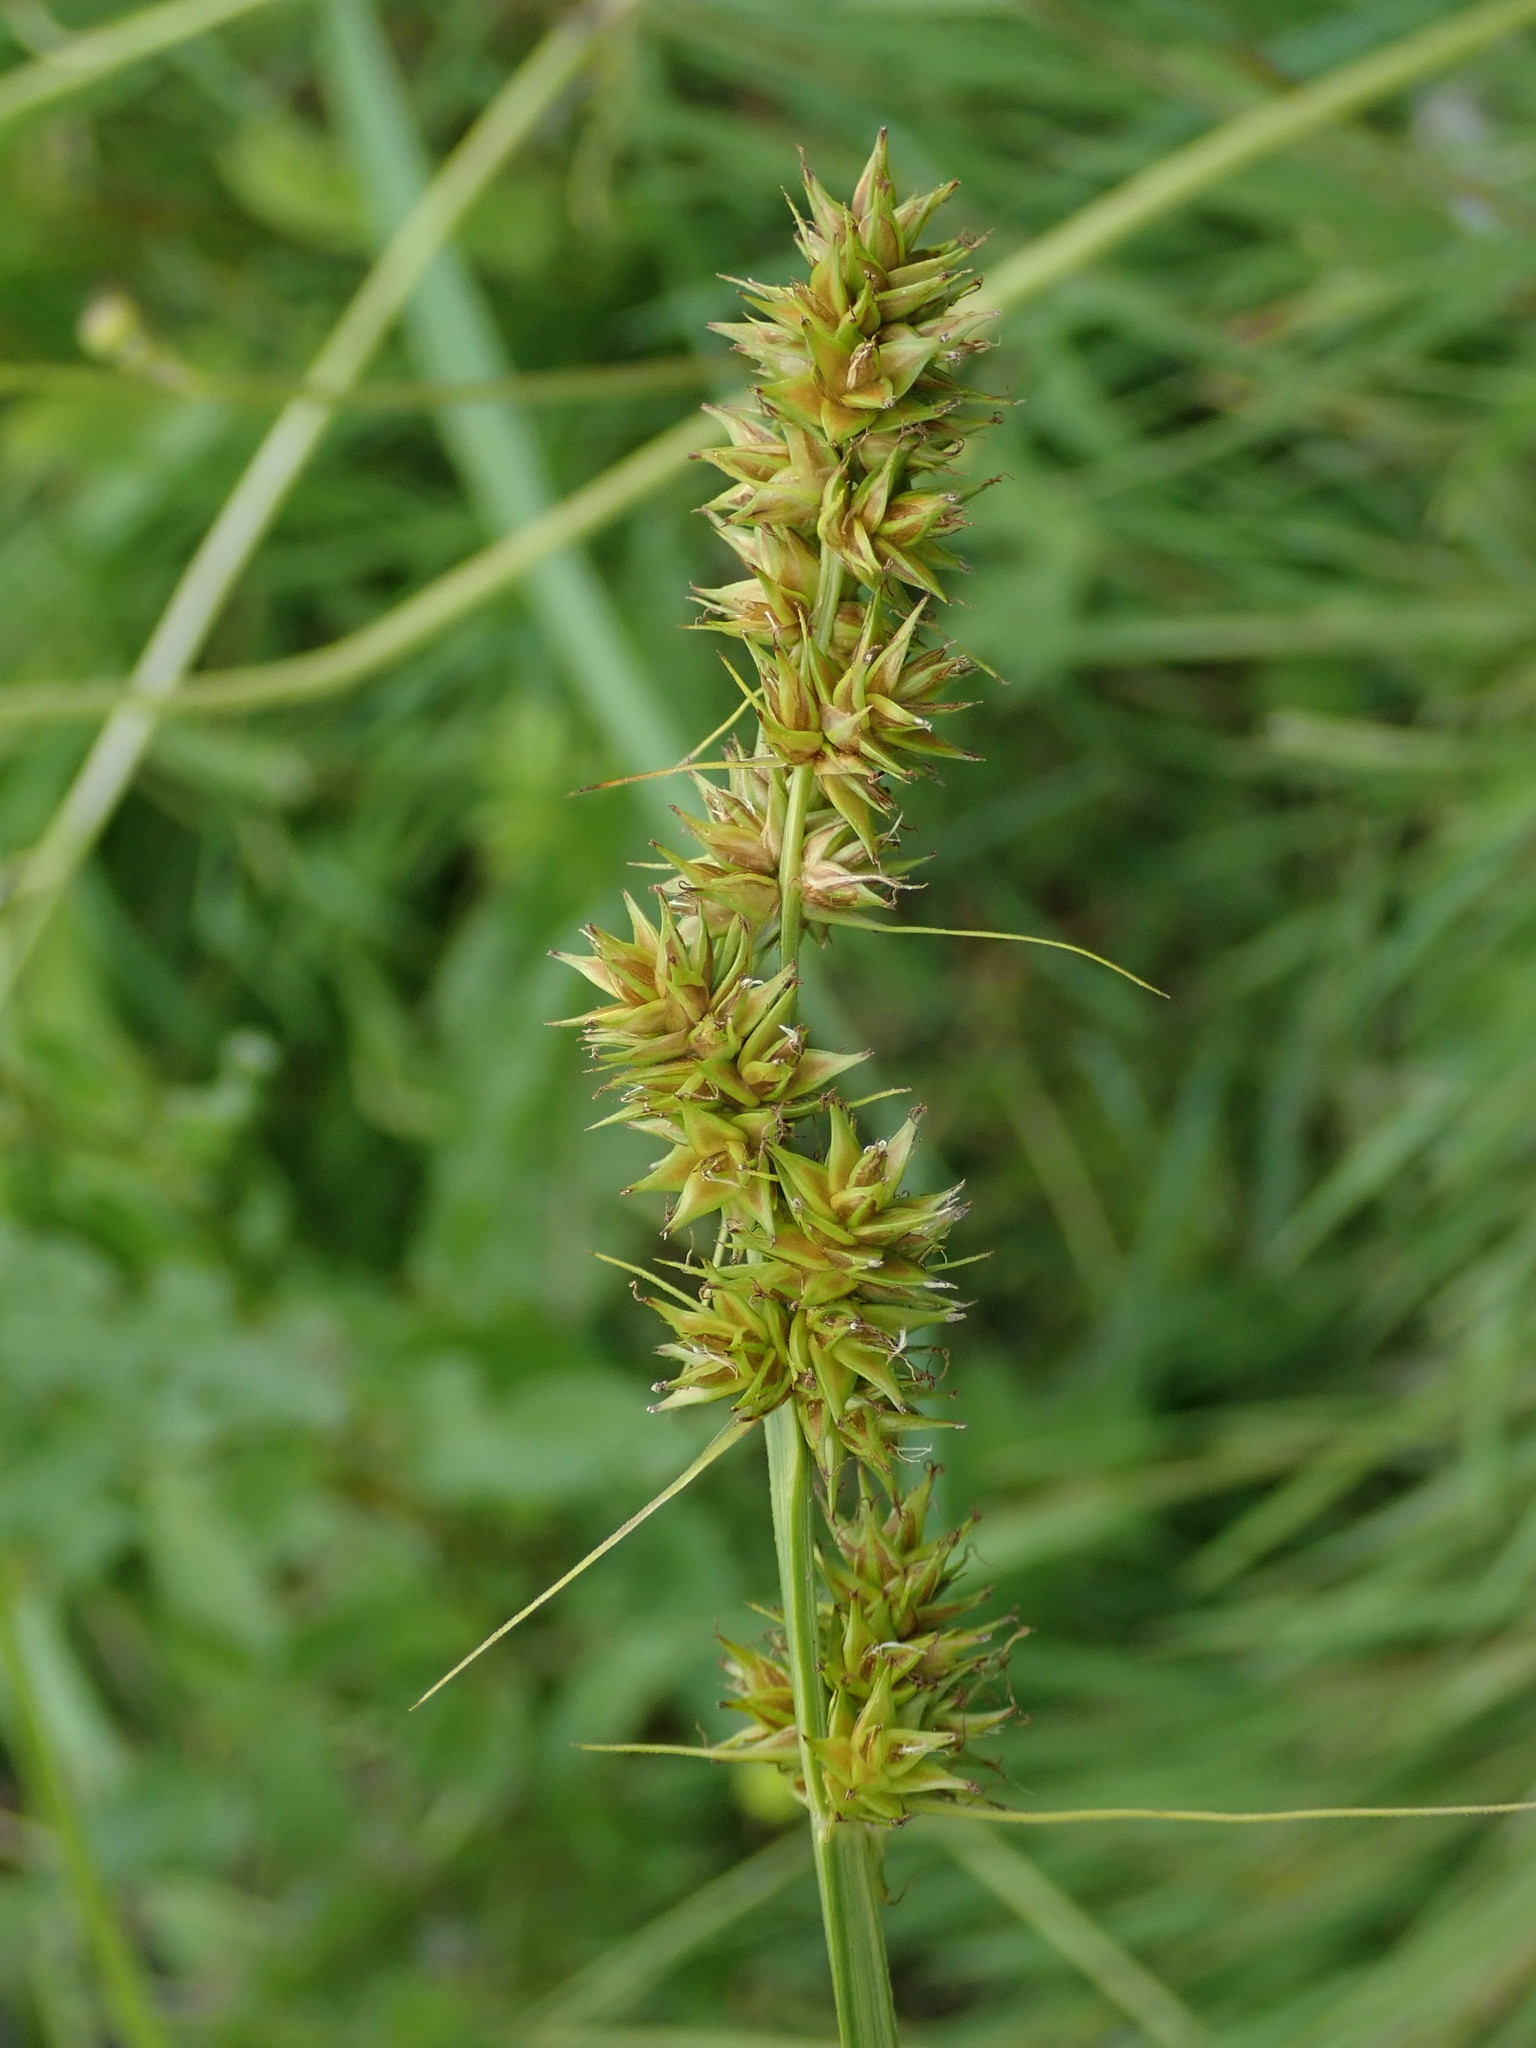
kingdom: Plantae
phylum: Tracheophyta
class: Liliopsida
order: Poales
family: Cyperaceae
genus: Carex
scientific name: Carex otrubae
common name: False fox-sedge
